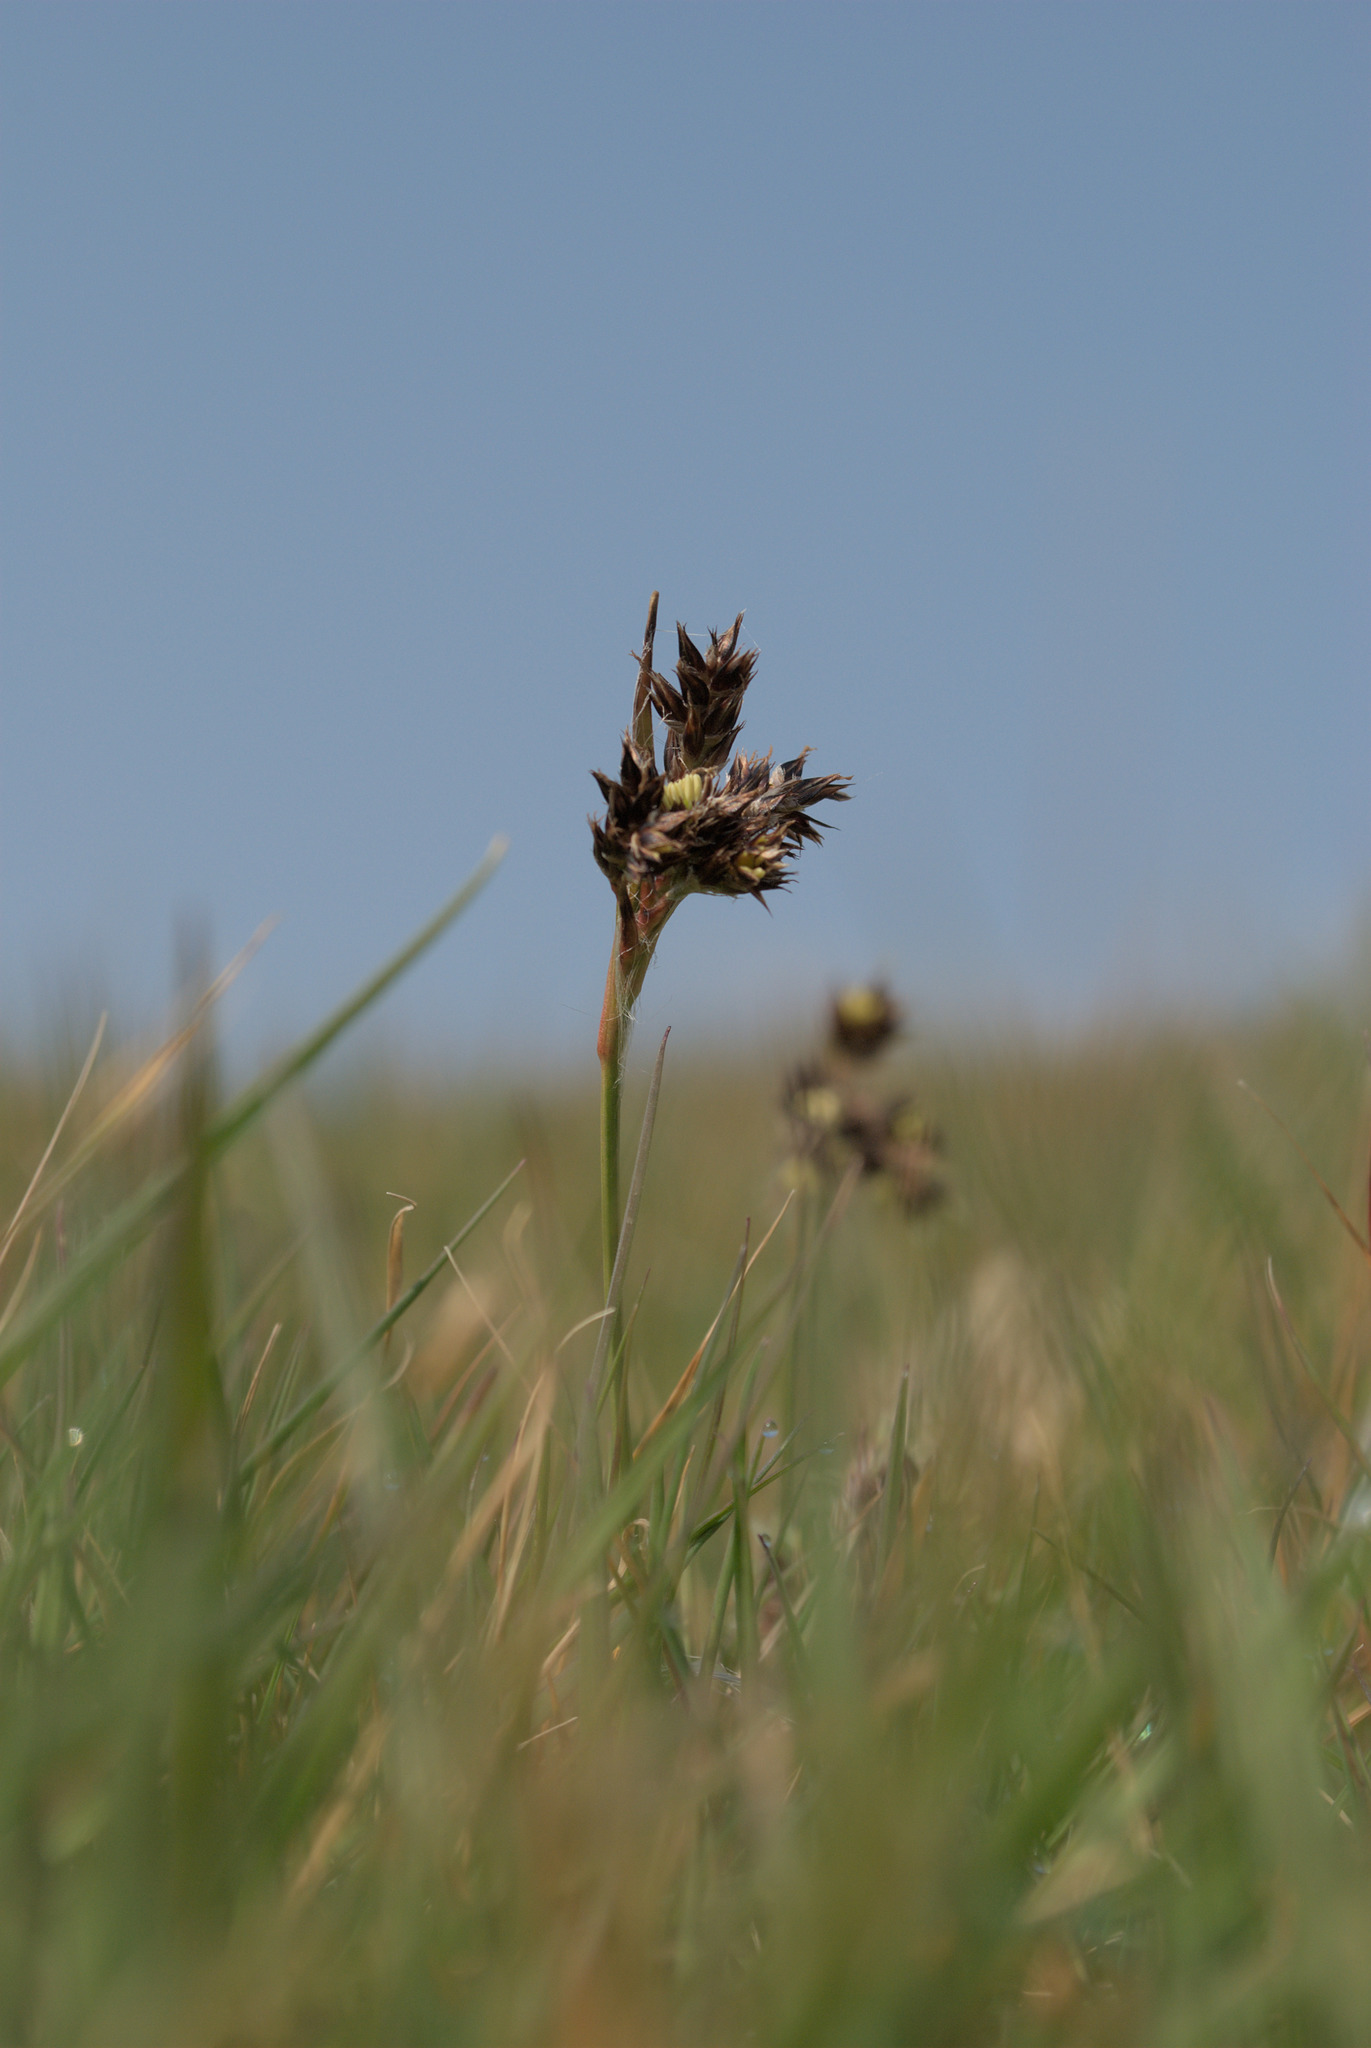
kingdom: Plantae
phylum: Tracheophyta
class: Liliopsida
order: Poales
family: Juncaceae
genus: Luzula
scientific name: Luzula campestris
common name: Field wood-rush
